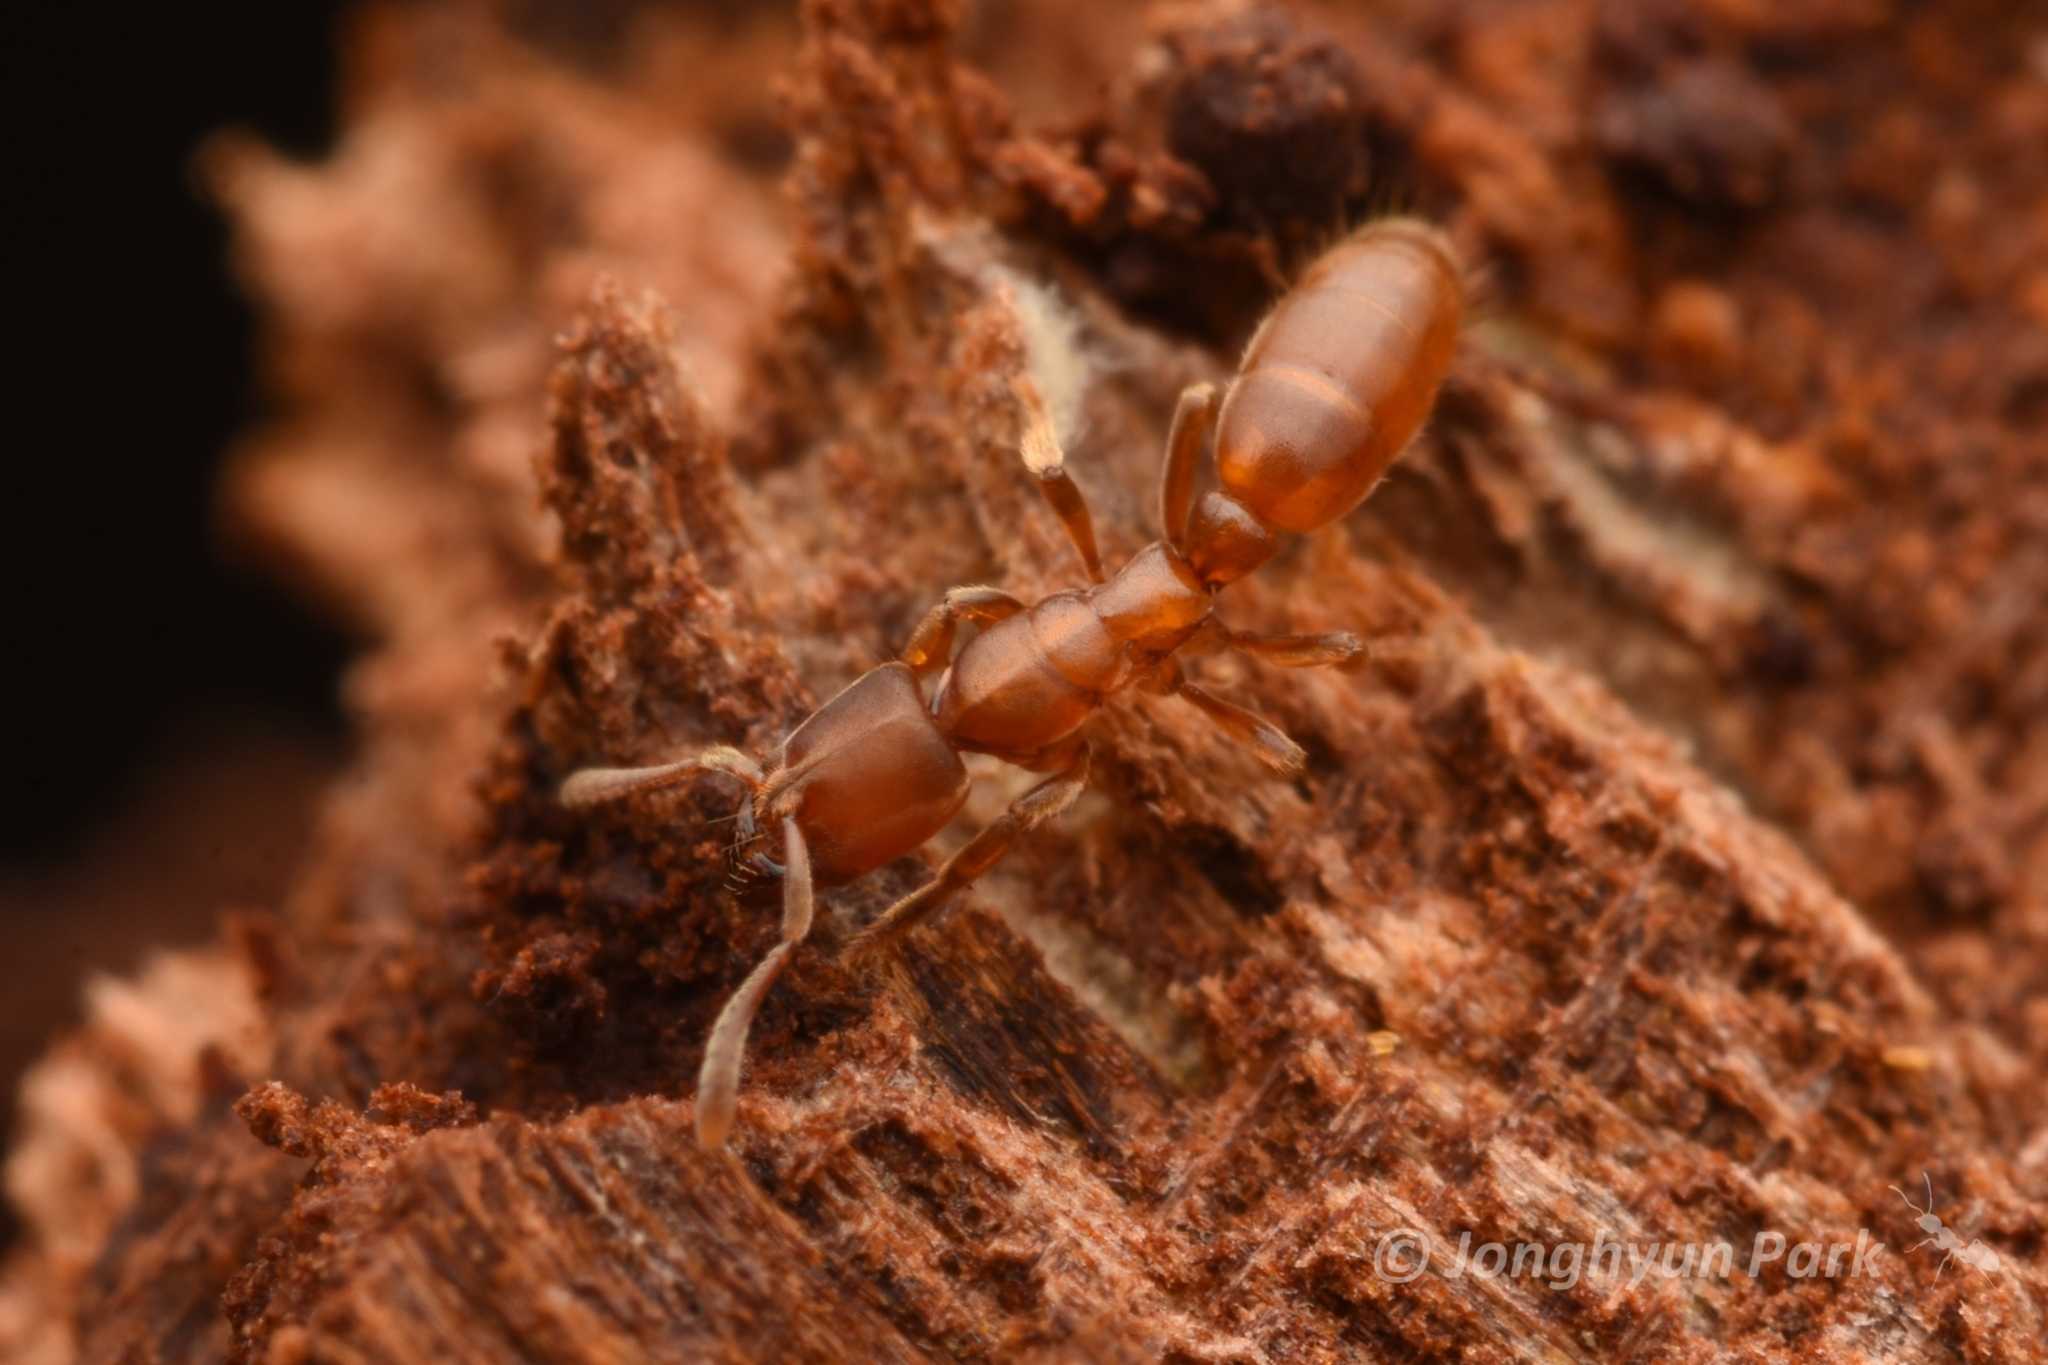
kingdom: Animalia
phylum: Arthropoda
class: Insecta
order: Hymenoptera
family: Formicidae
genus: Cryptopone
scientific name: Cryptopone sauteri
